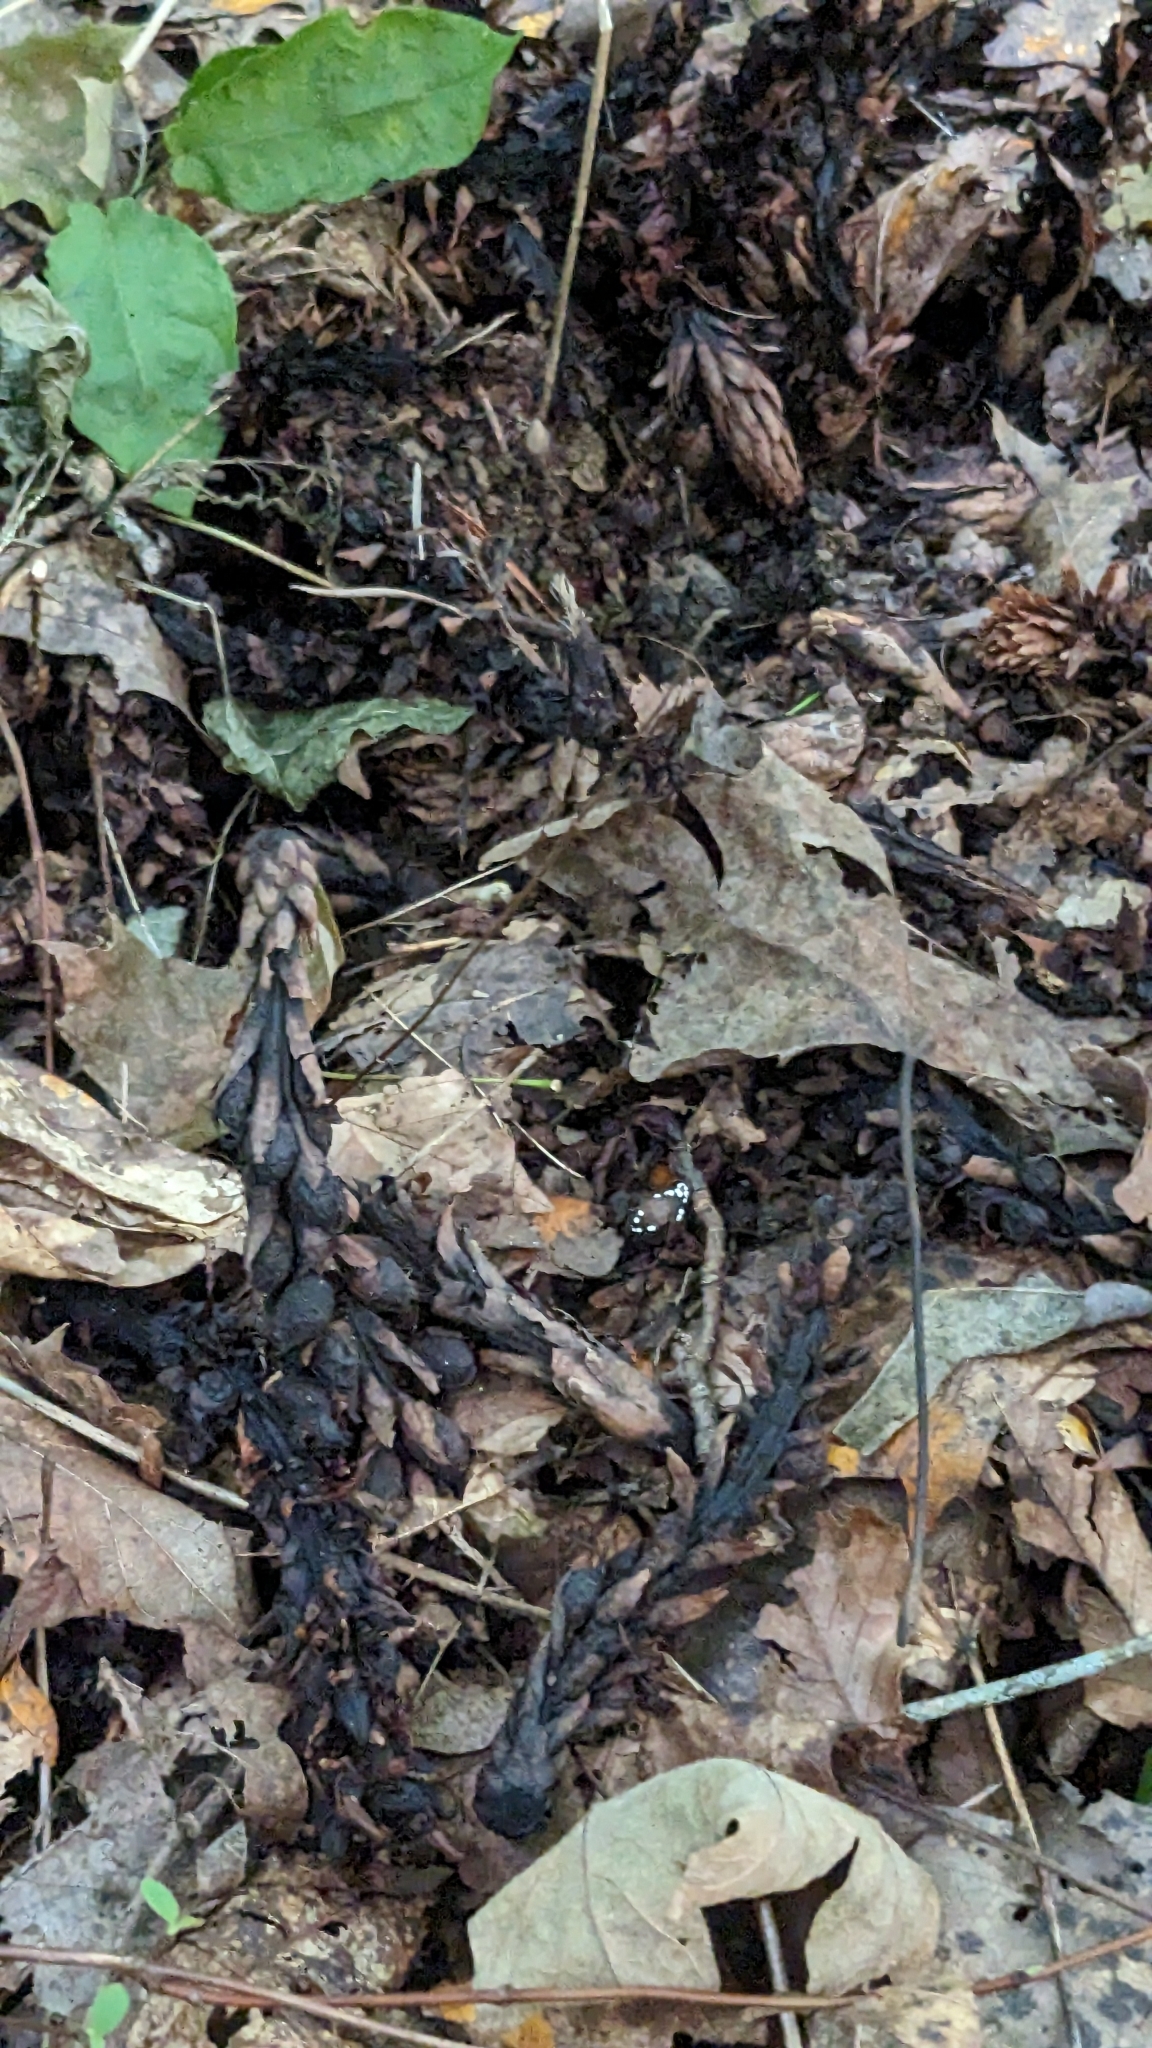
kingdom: Plantae
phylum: Tracheophyta
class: Magnoliopsida
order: Lamiales
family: Orobanchaceae
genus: Conopholis
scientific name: Conopholis americana
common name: American cancer-root
